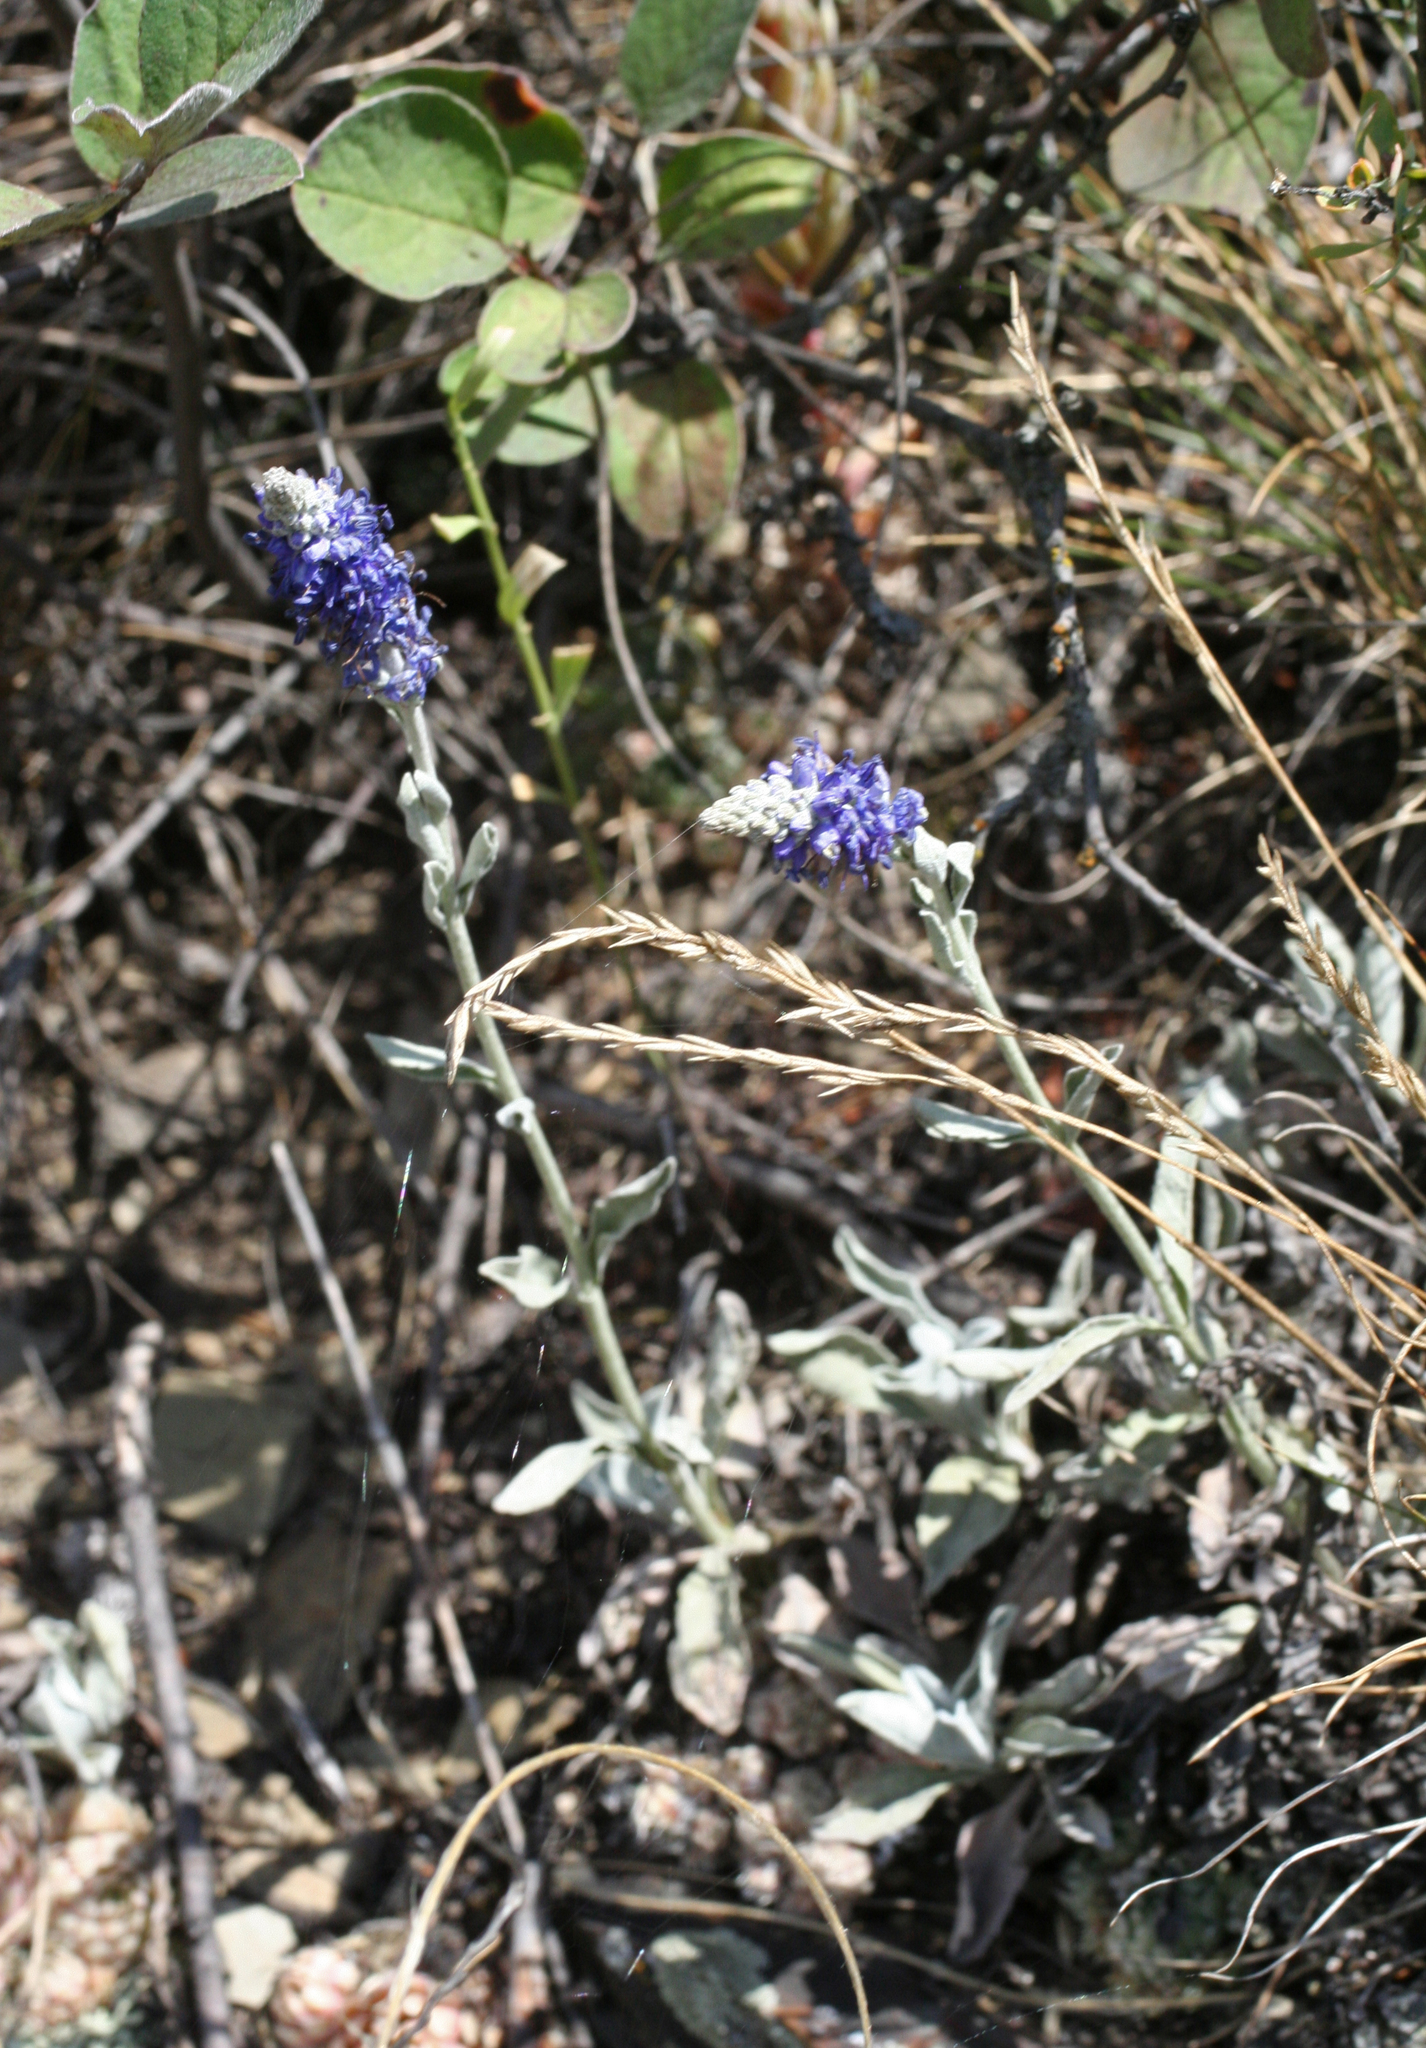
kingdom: Plantae
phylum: Tracheophyta
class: Magnoliopsida
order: Lamiales
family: Plantaginaceae
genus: Veronica
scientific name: Veronica incana
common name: Silver speedwell
